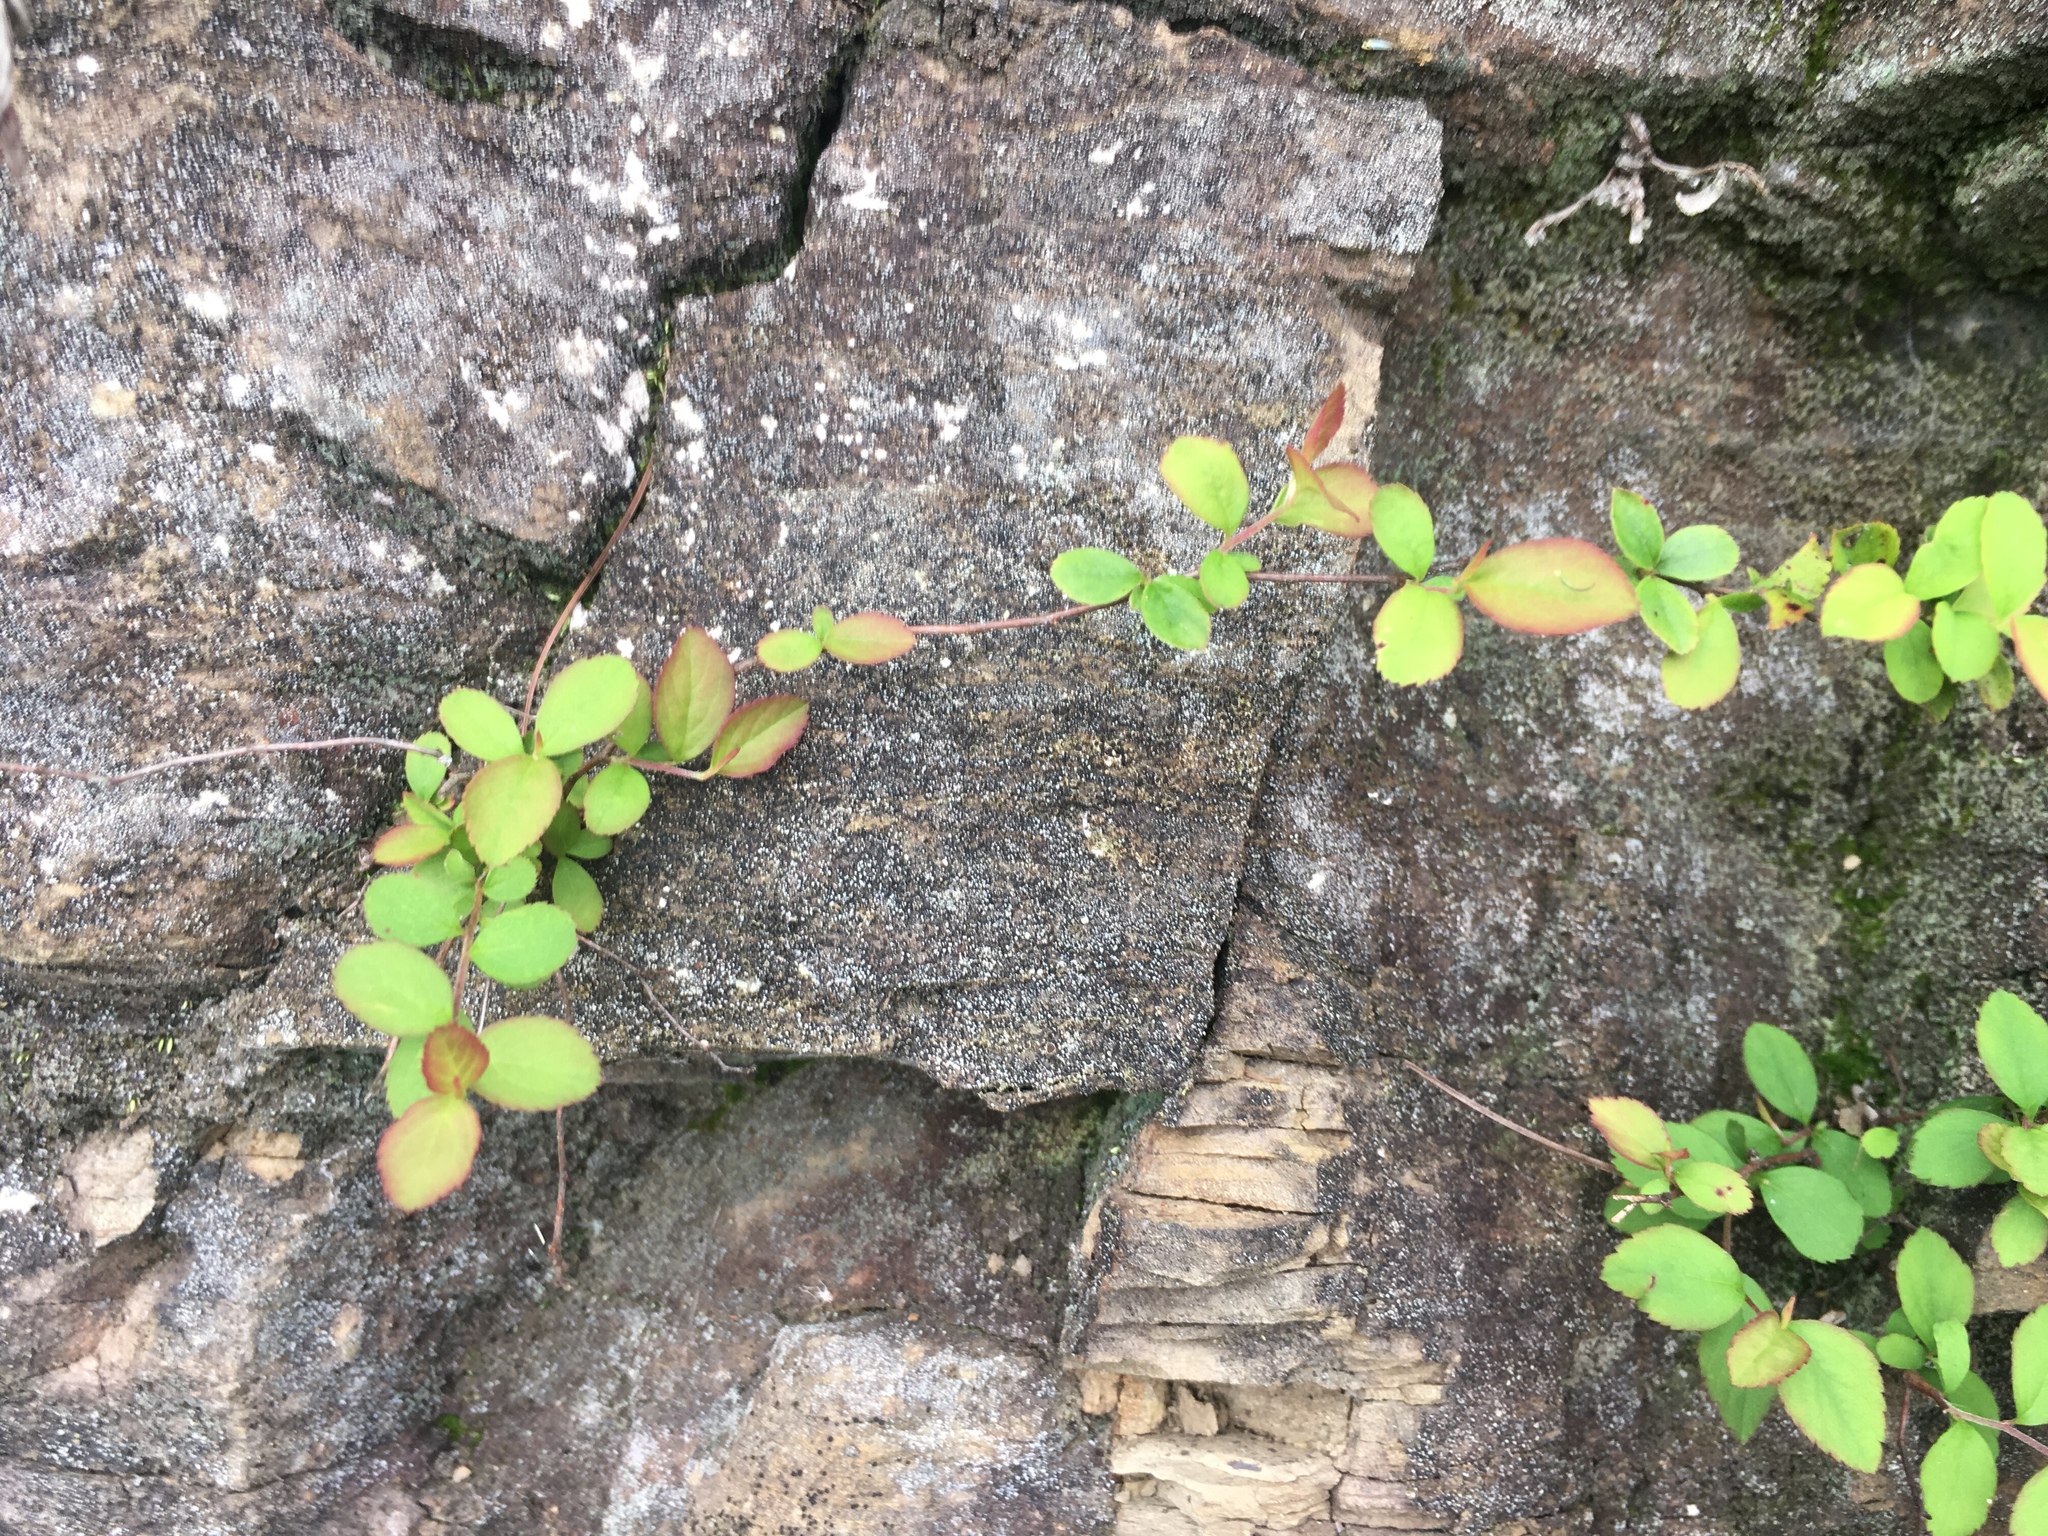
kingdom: Plantae
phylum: Tracheophyta
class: Magnoliopsida
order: Rosales
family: Rosaceae
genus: Spiraea
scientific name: Spiraea prunifolia
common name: Bridal-wreath spiraea
